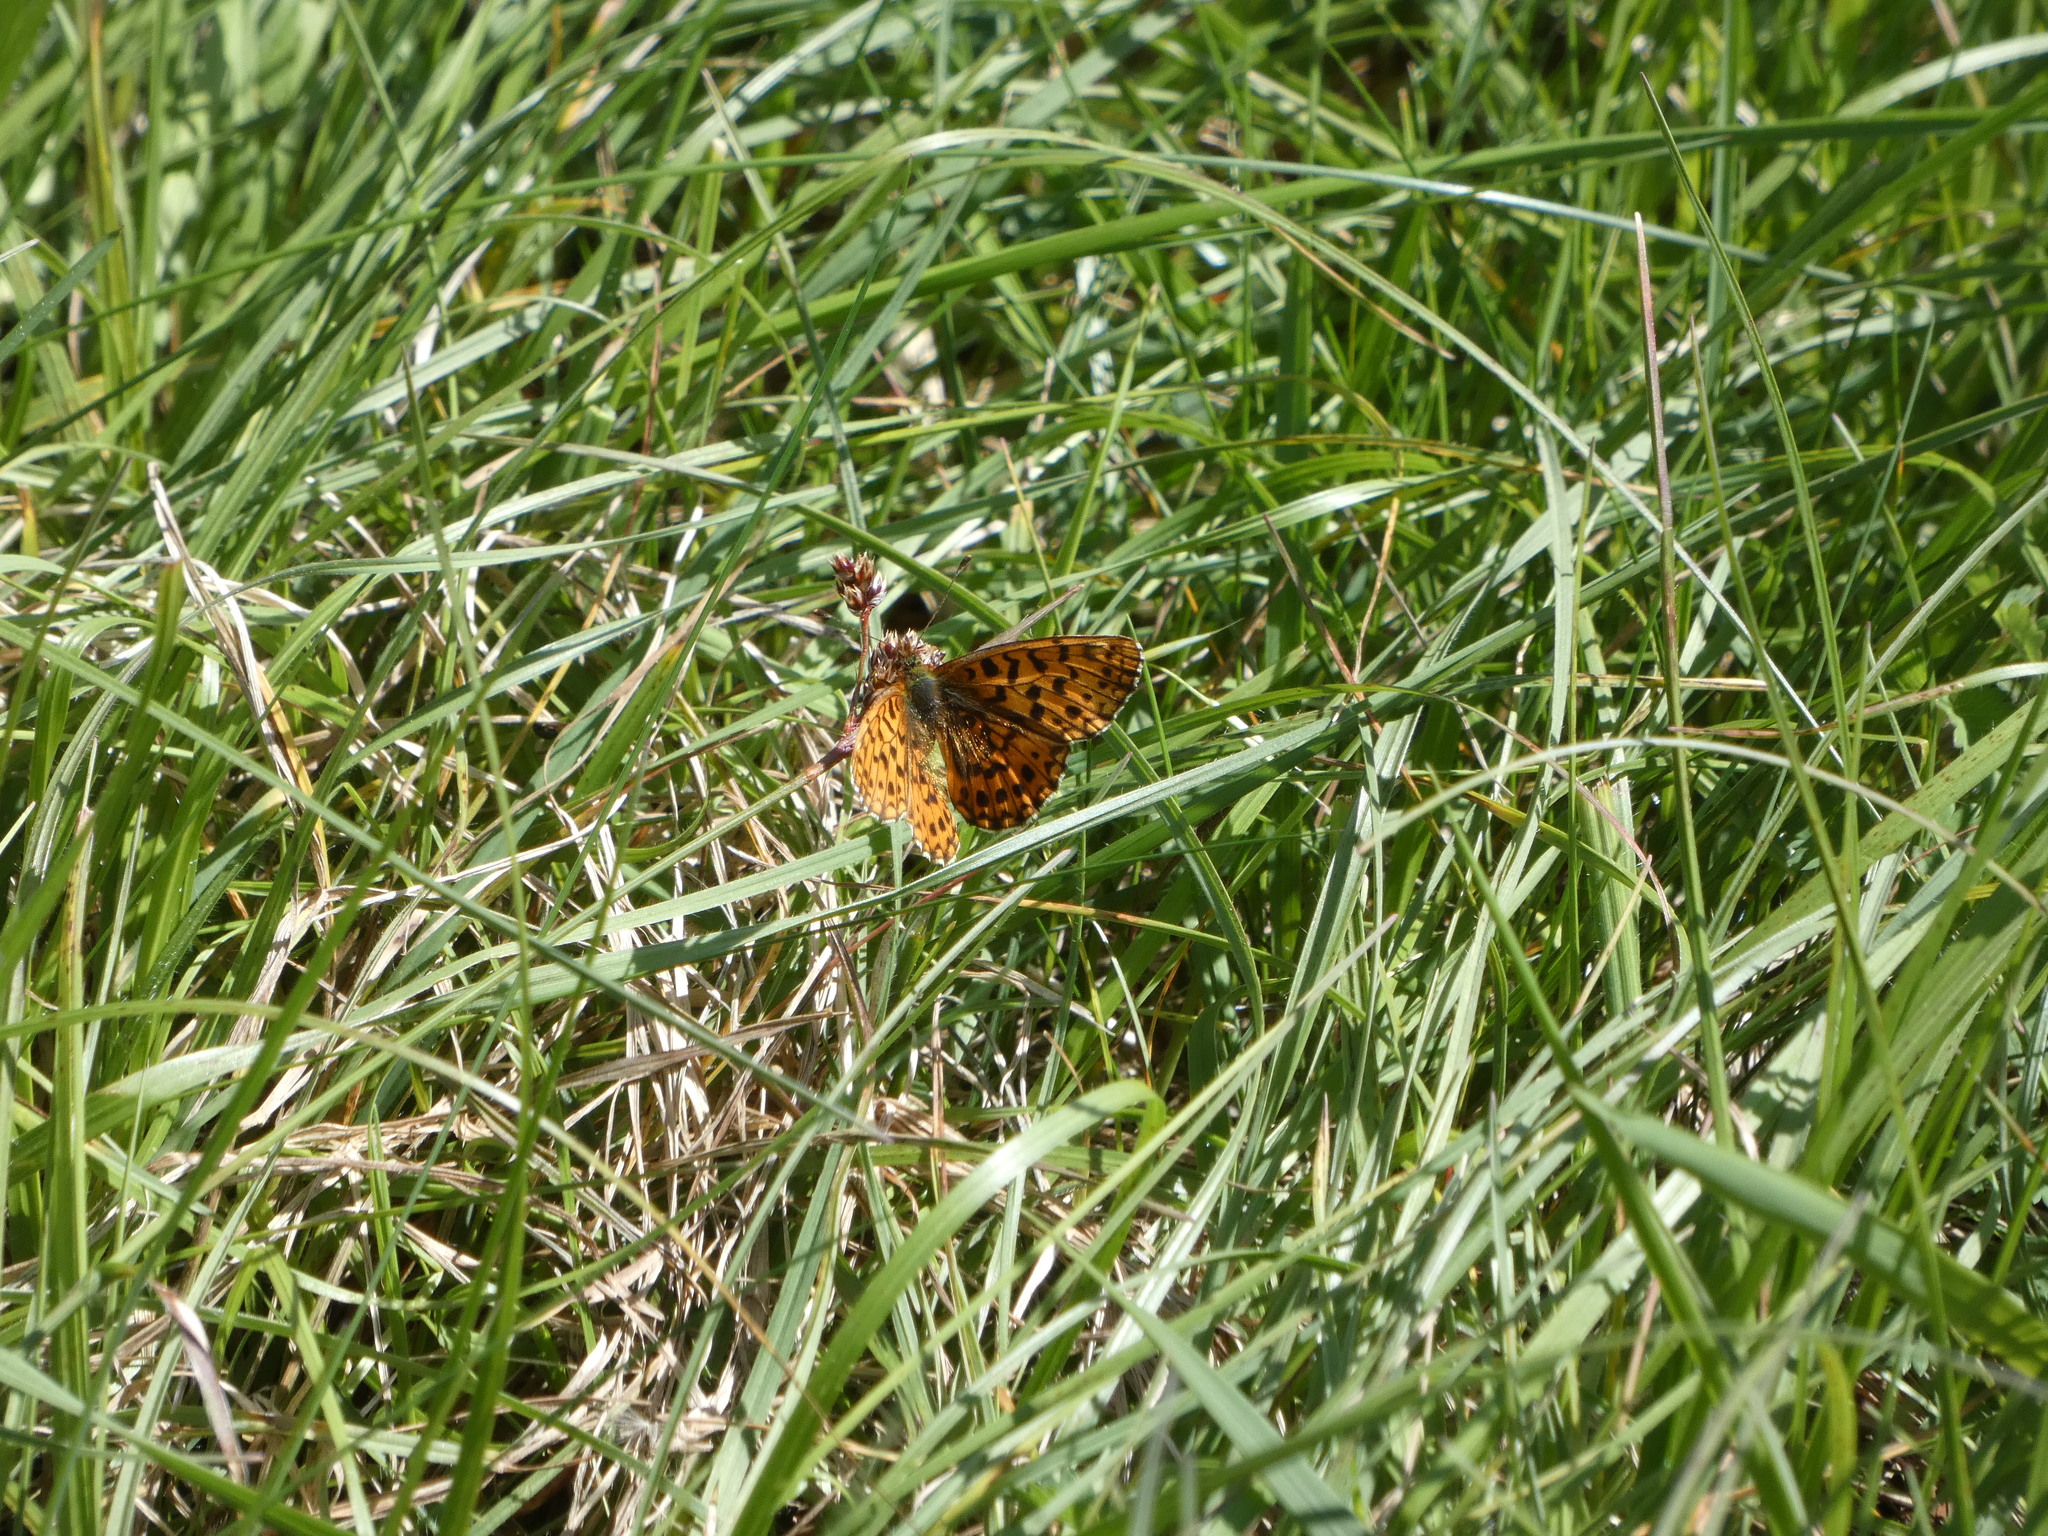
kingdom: Animalia
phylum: Arthropoda
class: Insecta
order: Lepidoptera
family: Nymphalidae
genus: Boloria
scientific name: Boloria dia
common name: Weaver's fritillary
